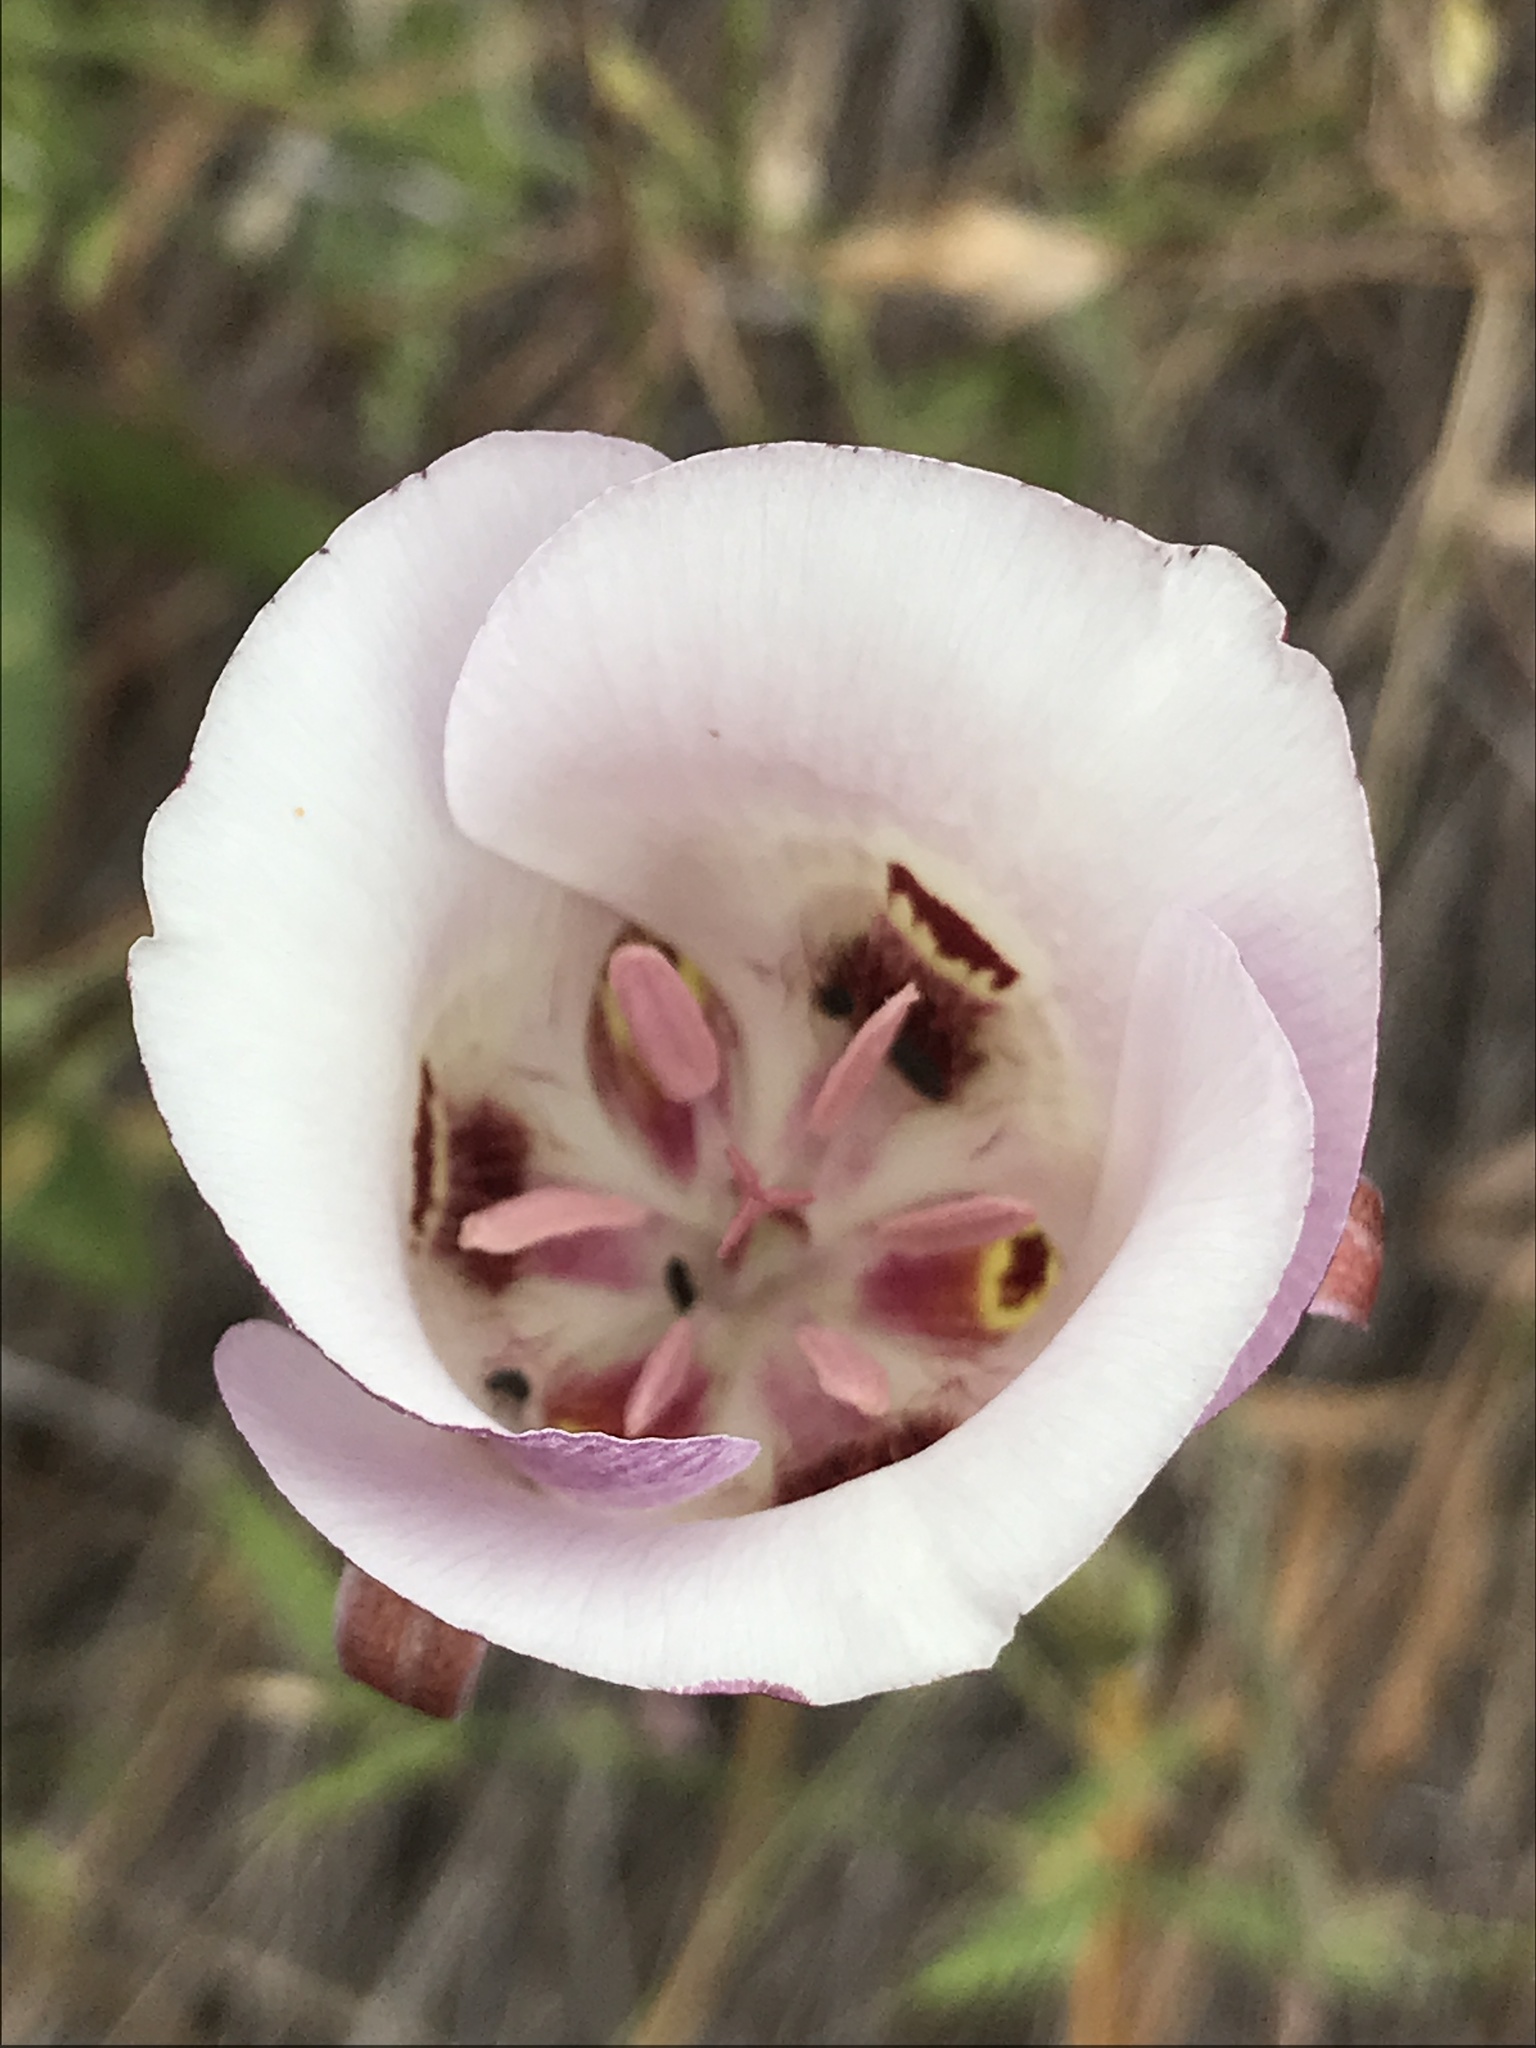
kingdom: Plantae
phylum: Tracheophyta
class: Liliopsida
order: Liliales
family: Liliaceae
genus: Calochortus
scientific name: Calochortus argillosus
